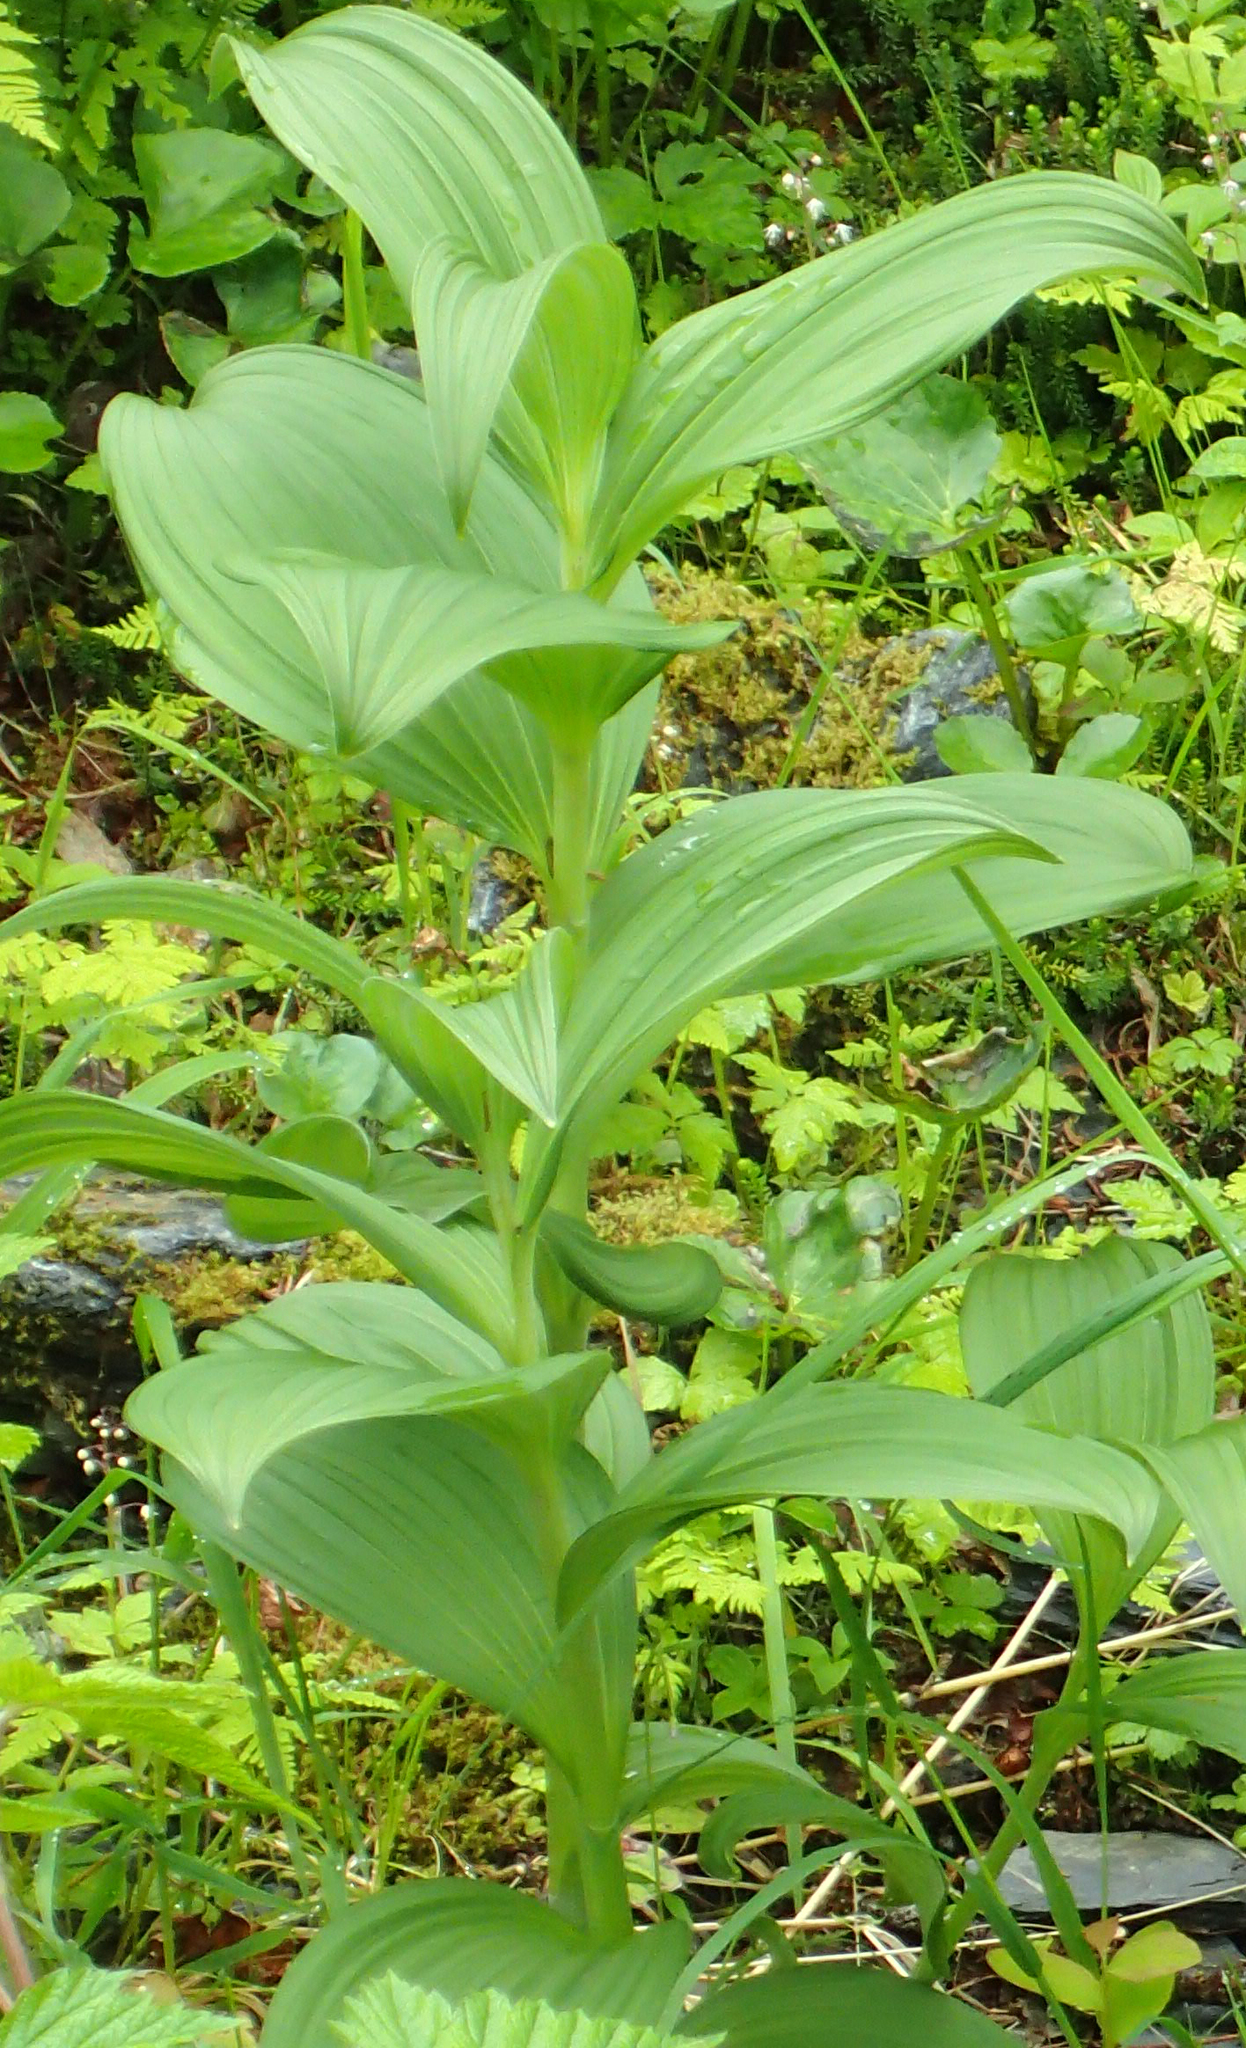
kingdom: Plantae
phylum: Tracheophyta
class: Liliopsida
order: Liliales
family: Melanthiaceae
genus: Veratrum
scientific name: Veratrum viride
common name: American false hellebore
